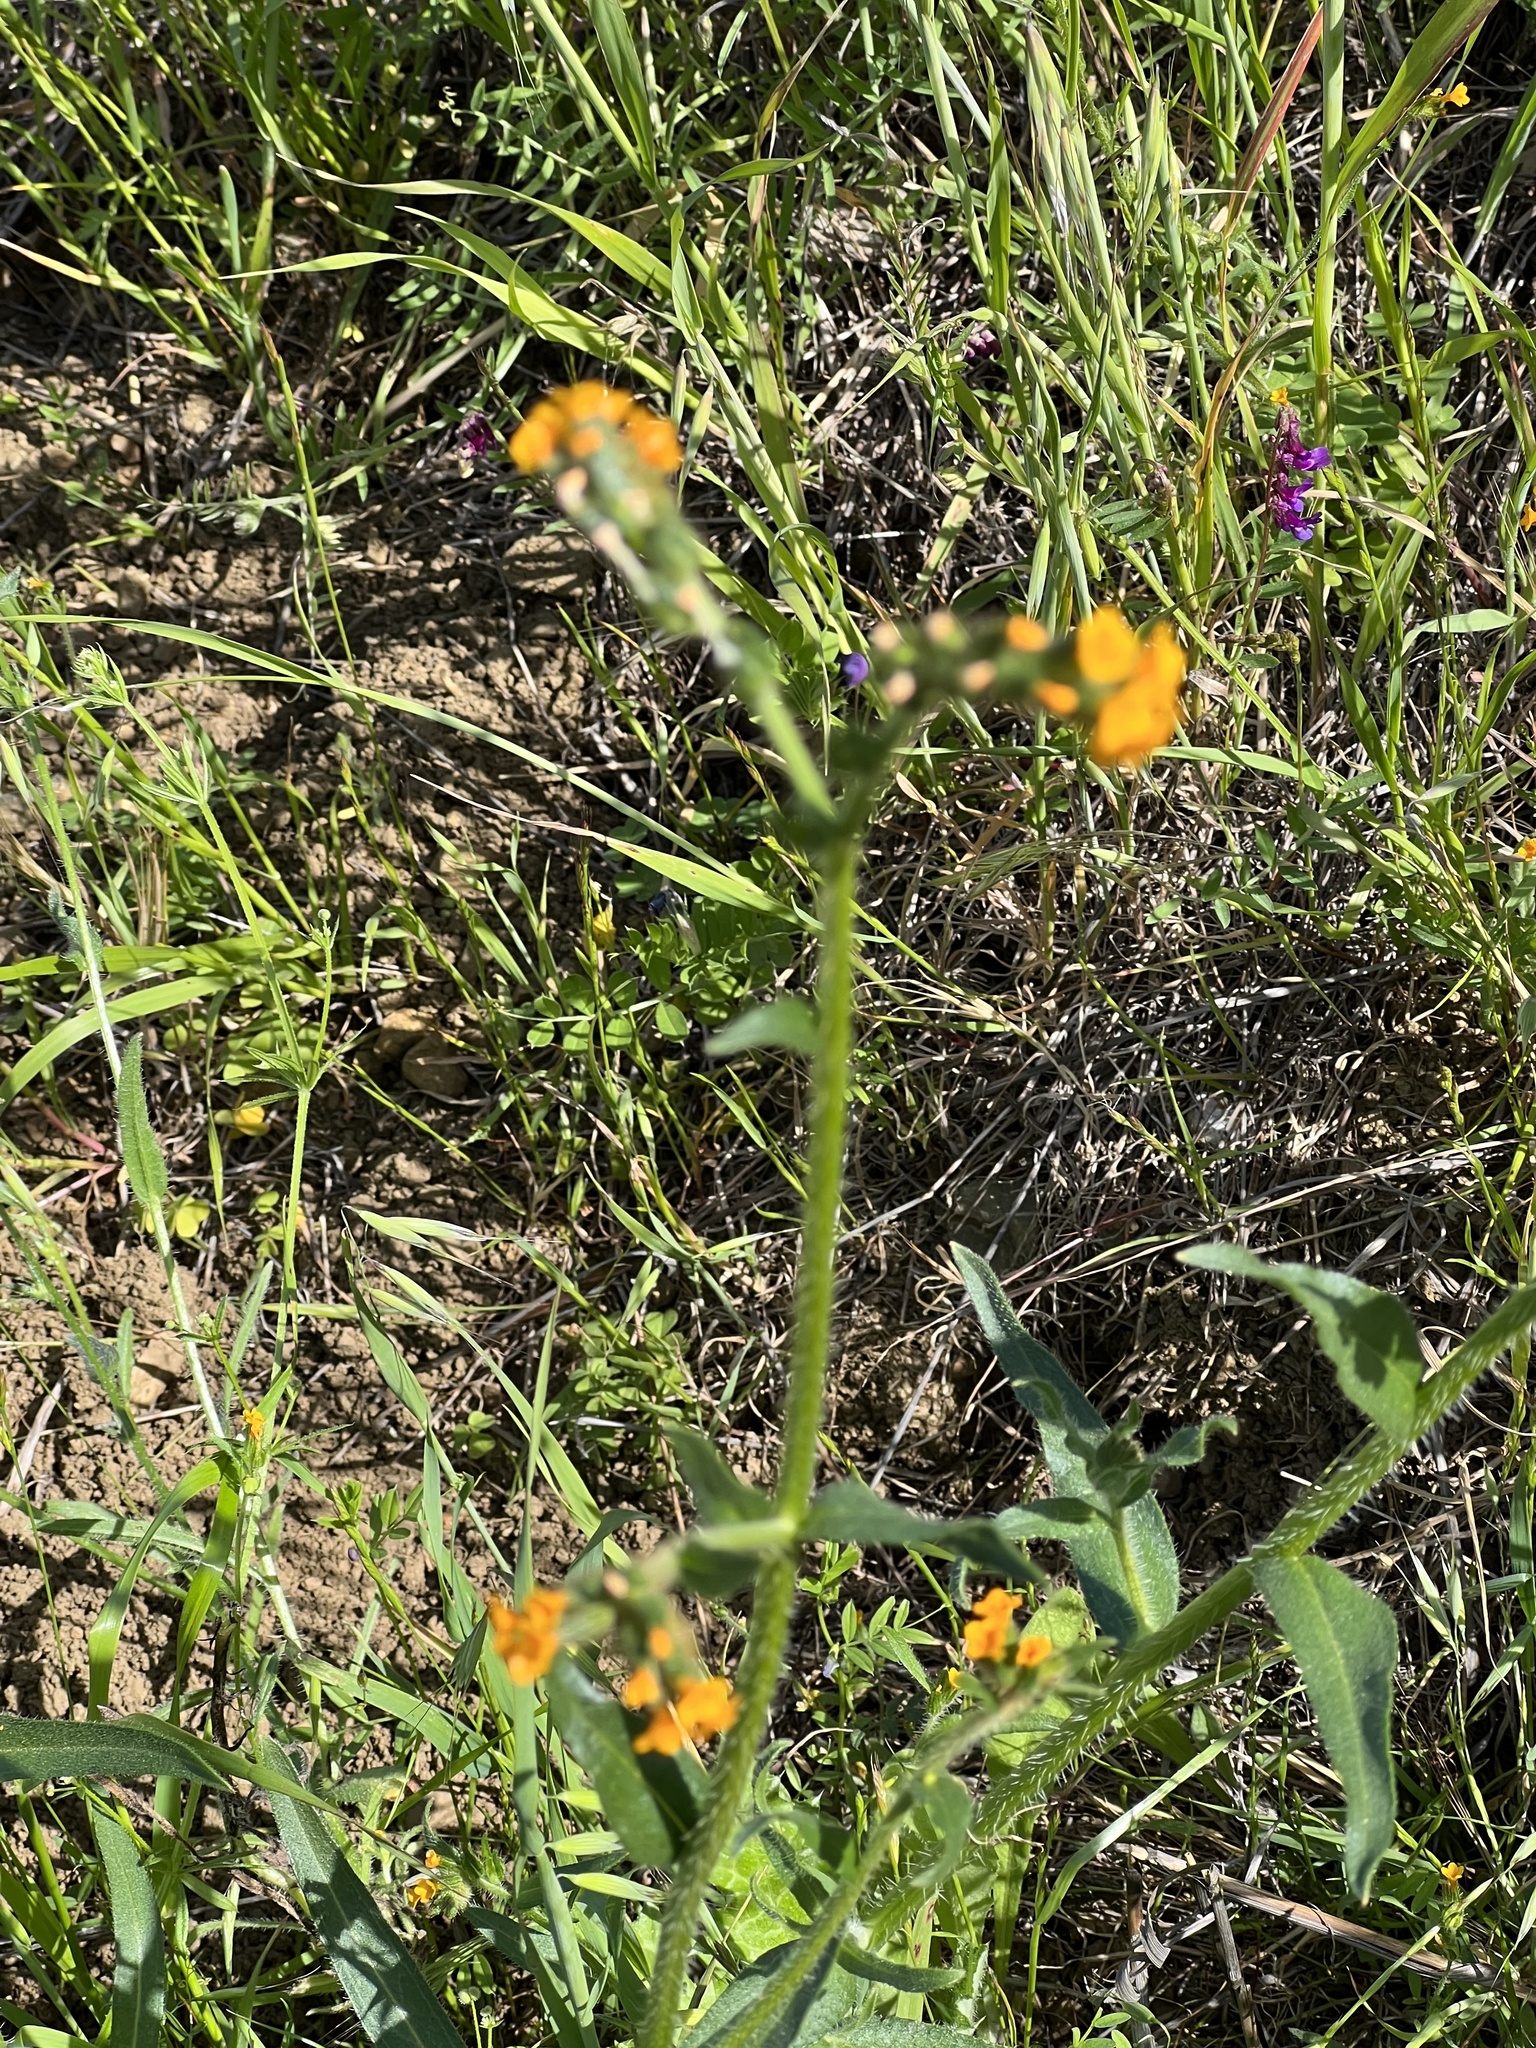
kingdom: Plantae
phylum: Tracheophyta
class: Magnoliopsida
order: Boraginales
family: Boraginaceae
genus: Amsinckia
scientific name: Amsinckia menziesii
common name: Menzies' fiddleneck
